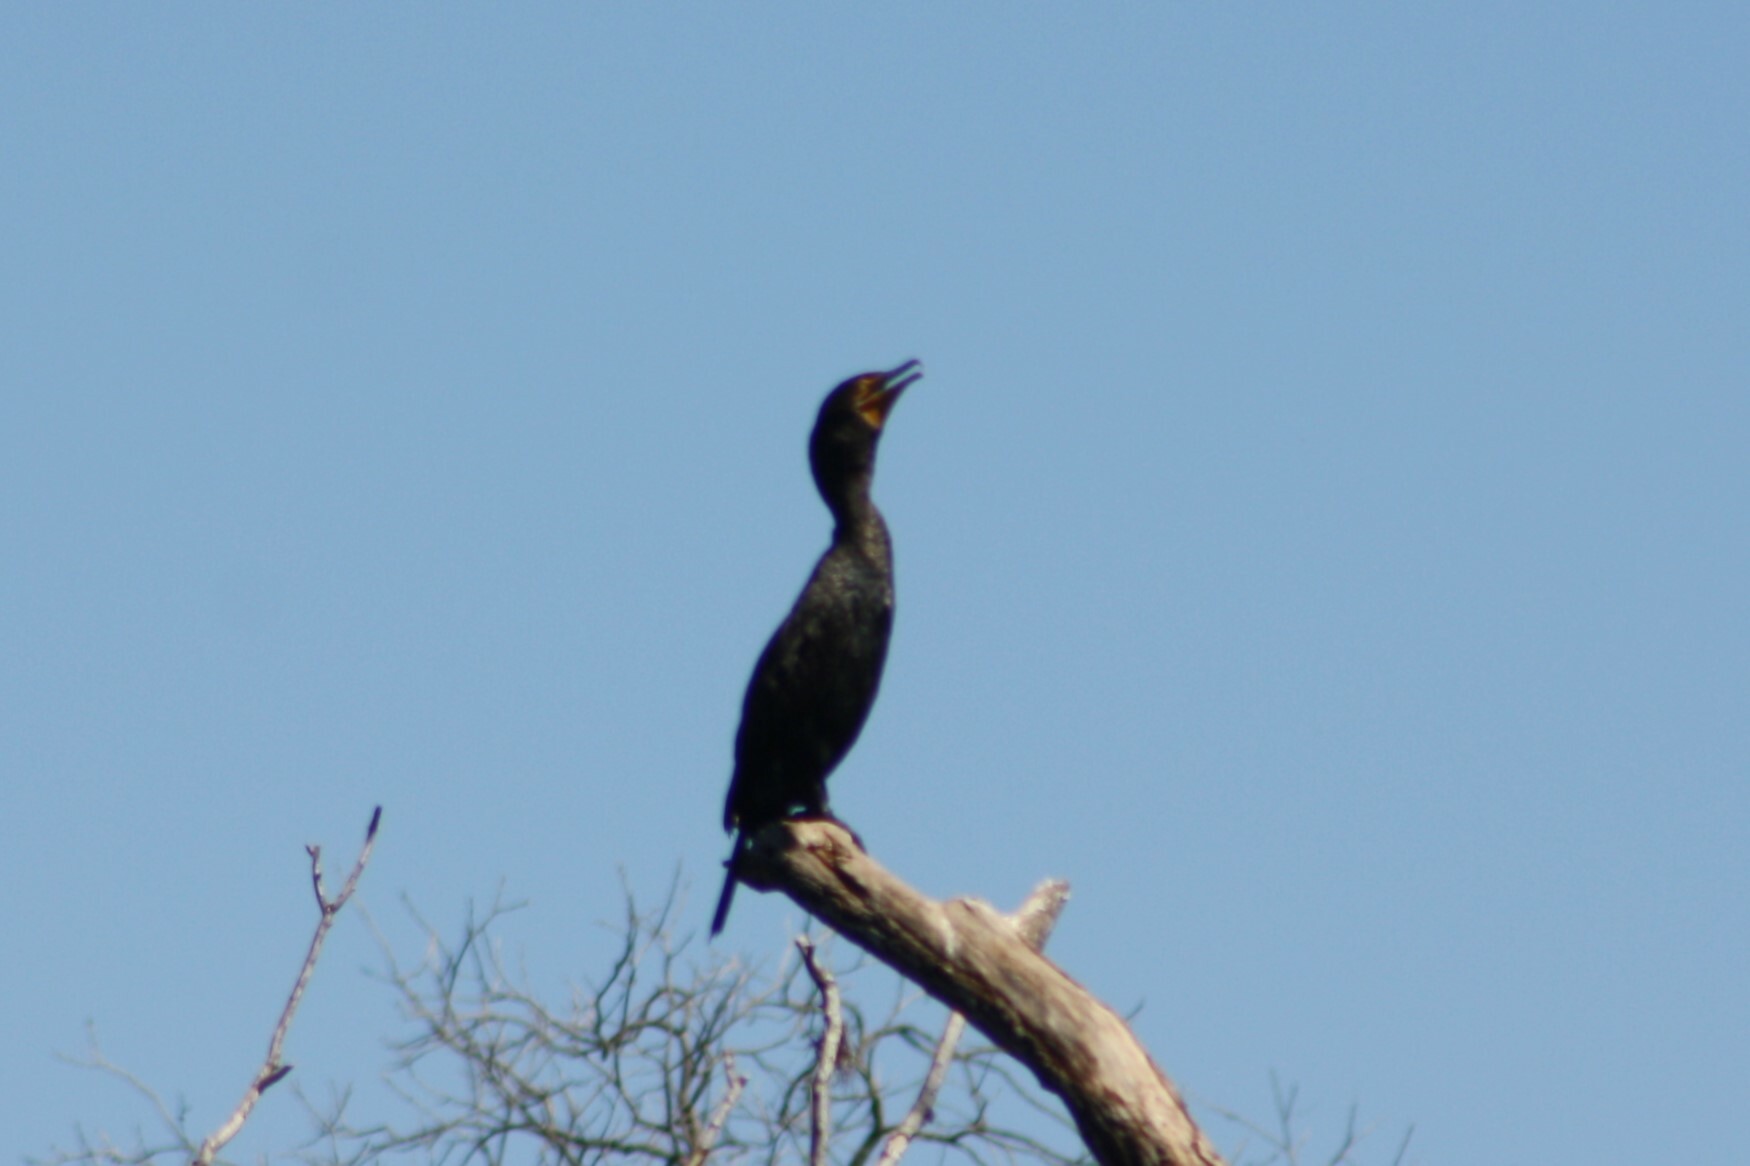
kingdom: Animalia
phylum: Chordata
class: Aves
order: Suliformes
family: Phalacrocoracidae
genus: Phalacrocorax
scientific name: Phalacrocorax auritus
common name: Double-crested cormorant
